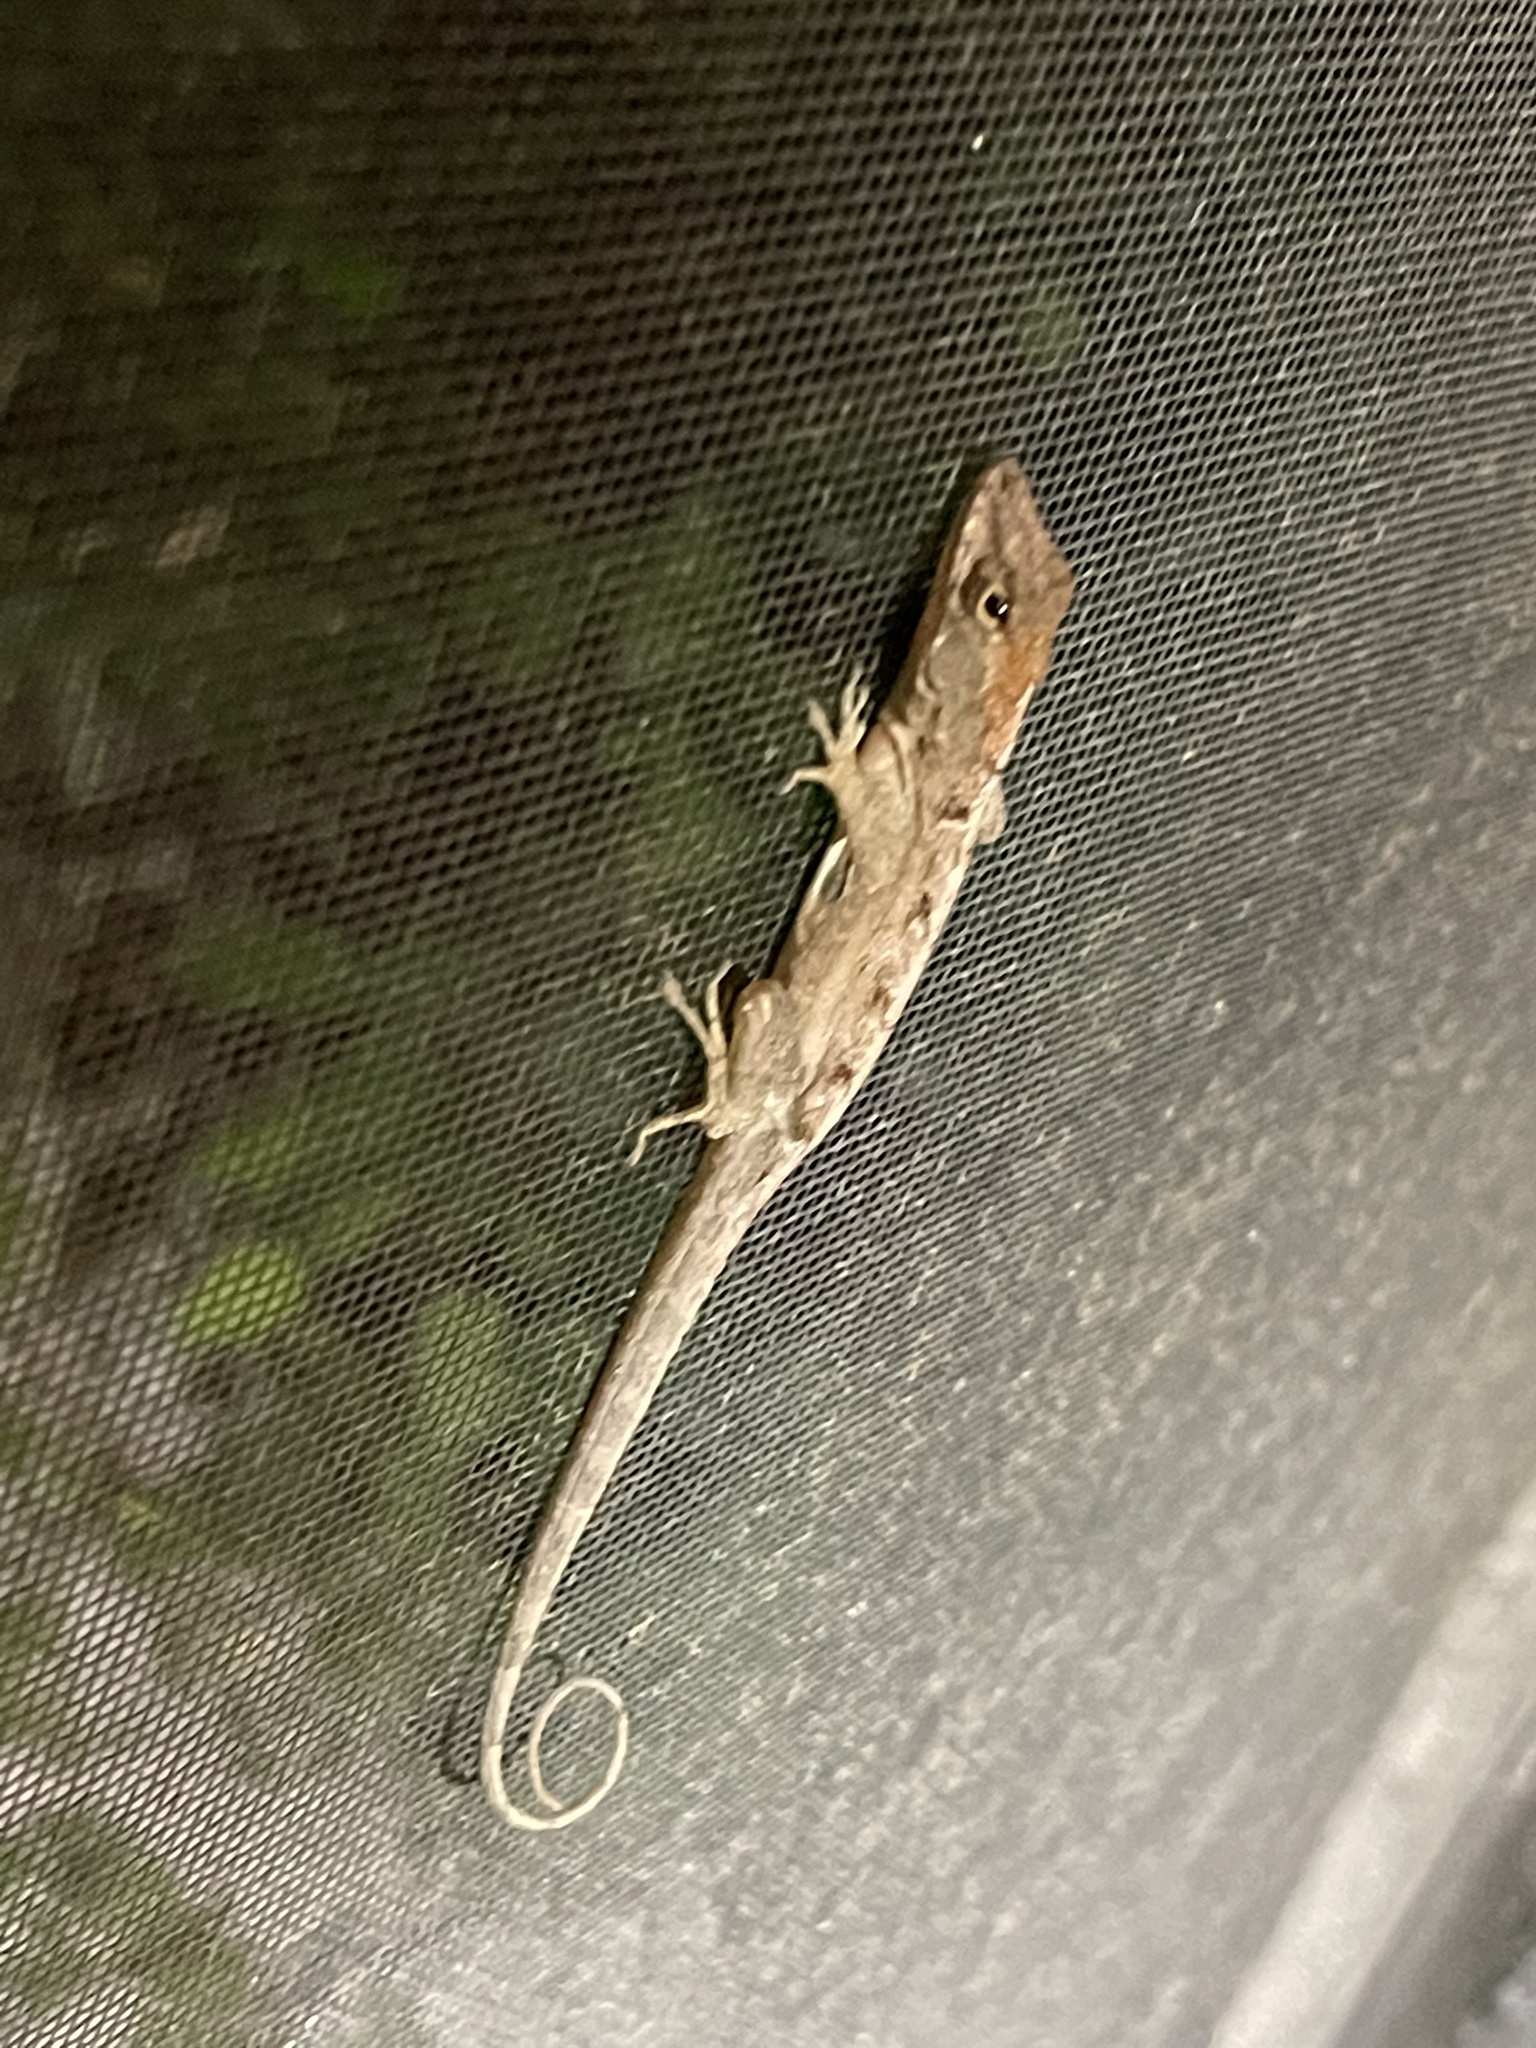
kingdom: Animalia
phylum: Chordata
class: Squamata
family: Dactyloidae
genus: Anolis
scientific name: Anolis sagrei
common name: Brown anole
